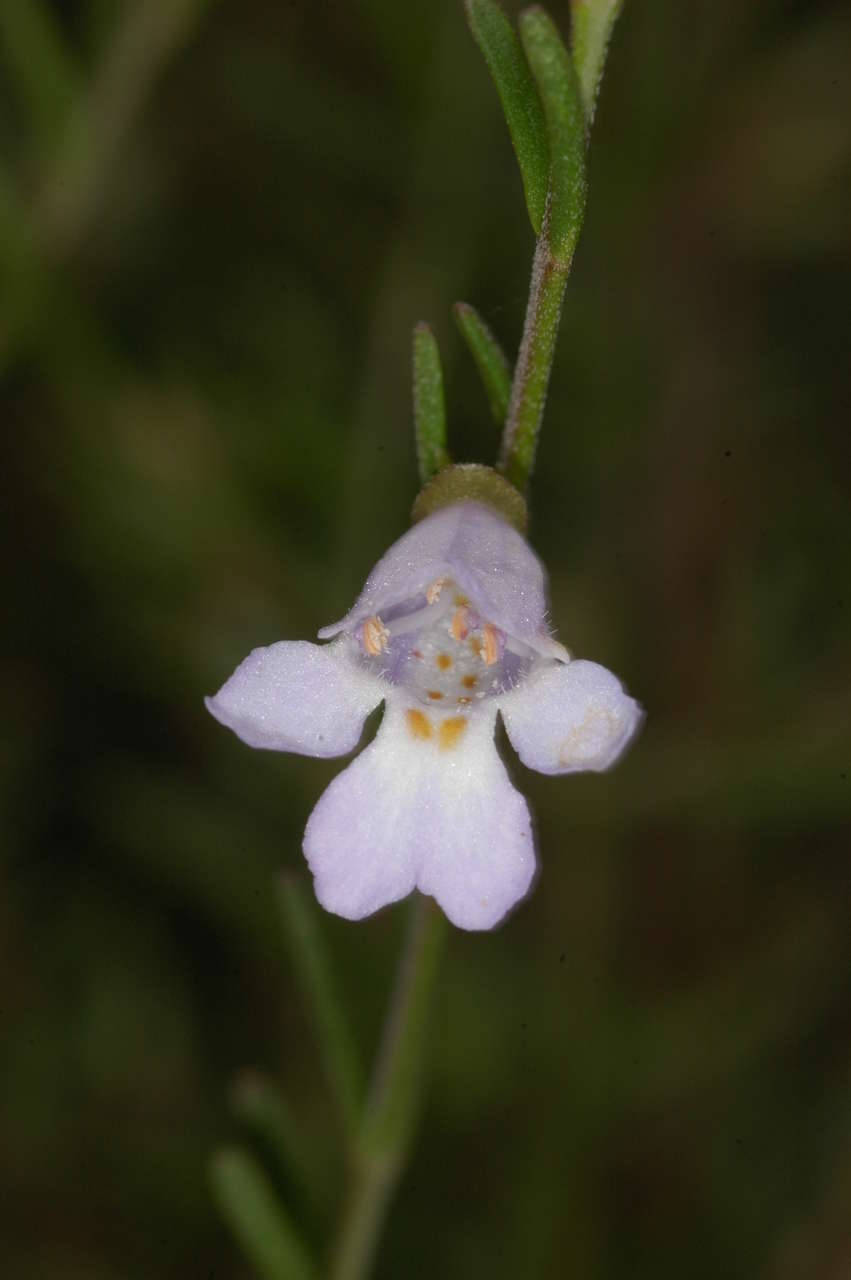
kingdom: Plantae
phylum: Tracheophyta
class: Magnoliopsida
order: Lamiales
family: Lamiaceae
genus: Prostanthera
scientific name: Prostanthera saxicola
